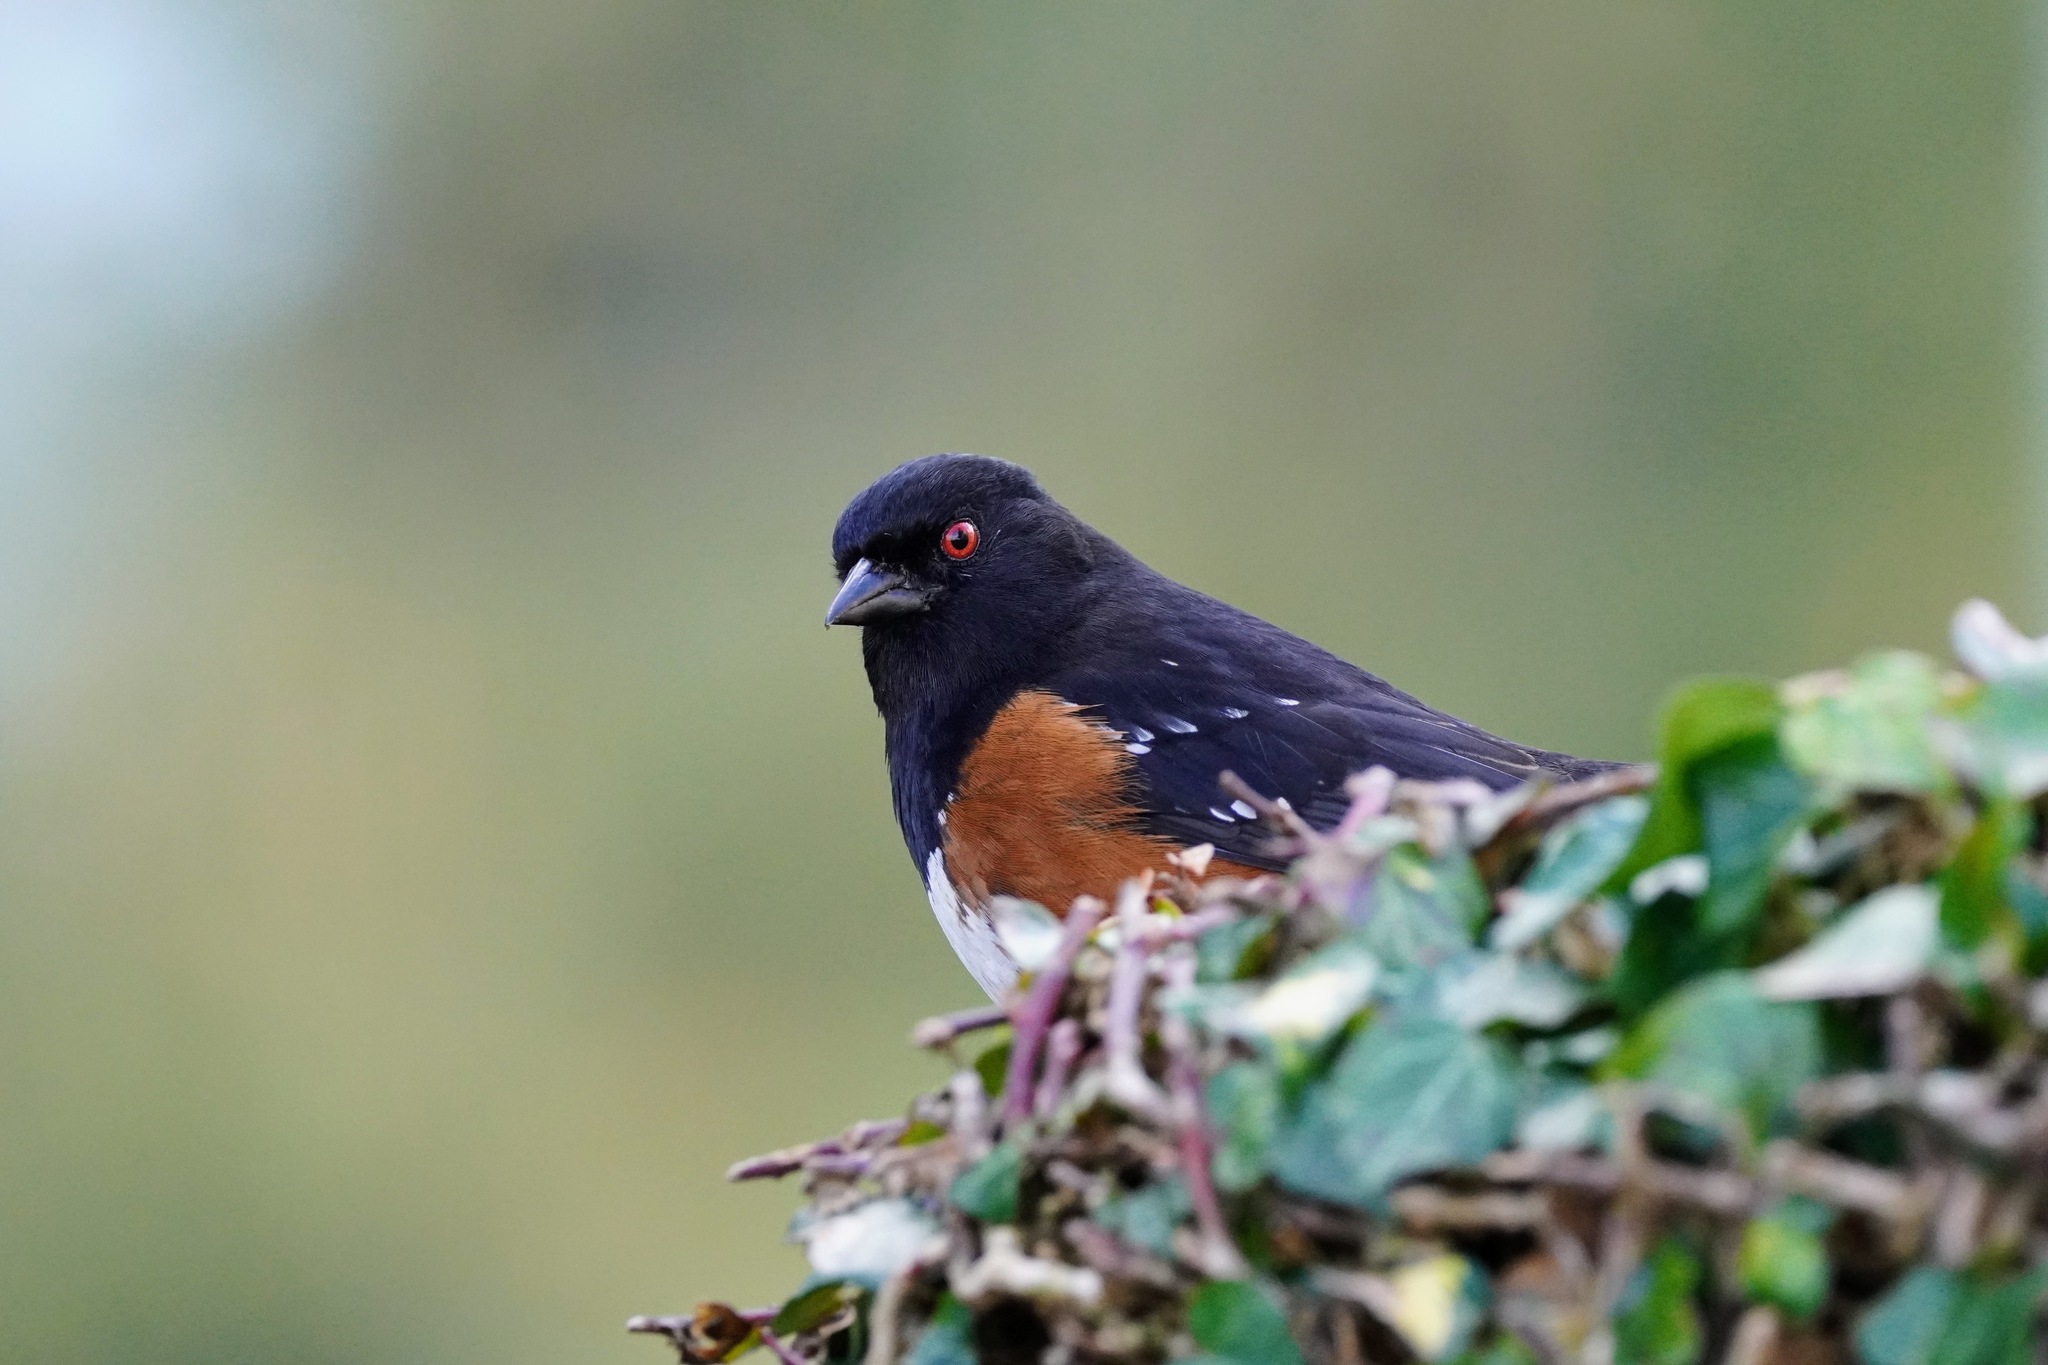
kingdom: Animalia
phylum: Chordata
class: Aves
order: Passeriformes
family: Passerellidae
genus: Pipilo
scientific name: Pipilo maculatus
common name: Spotted towhee
